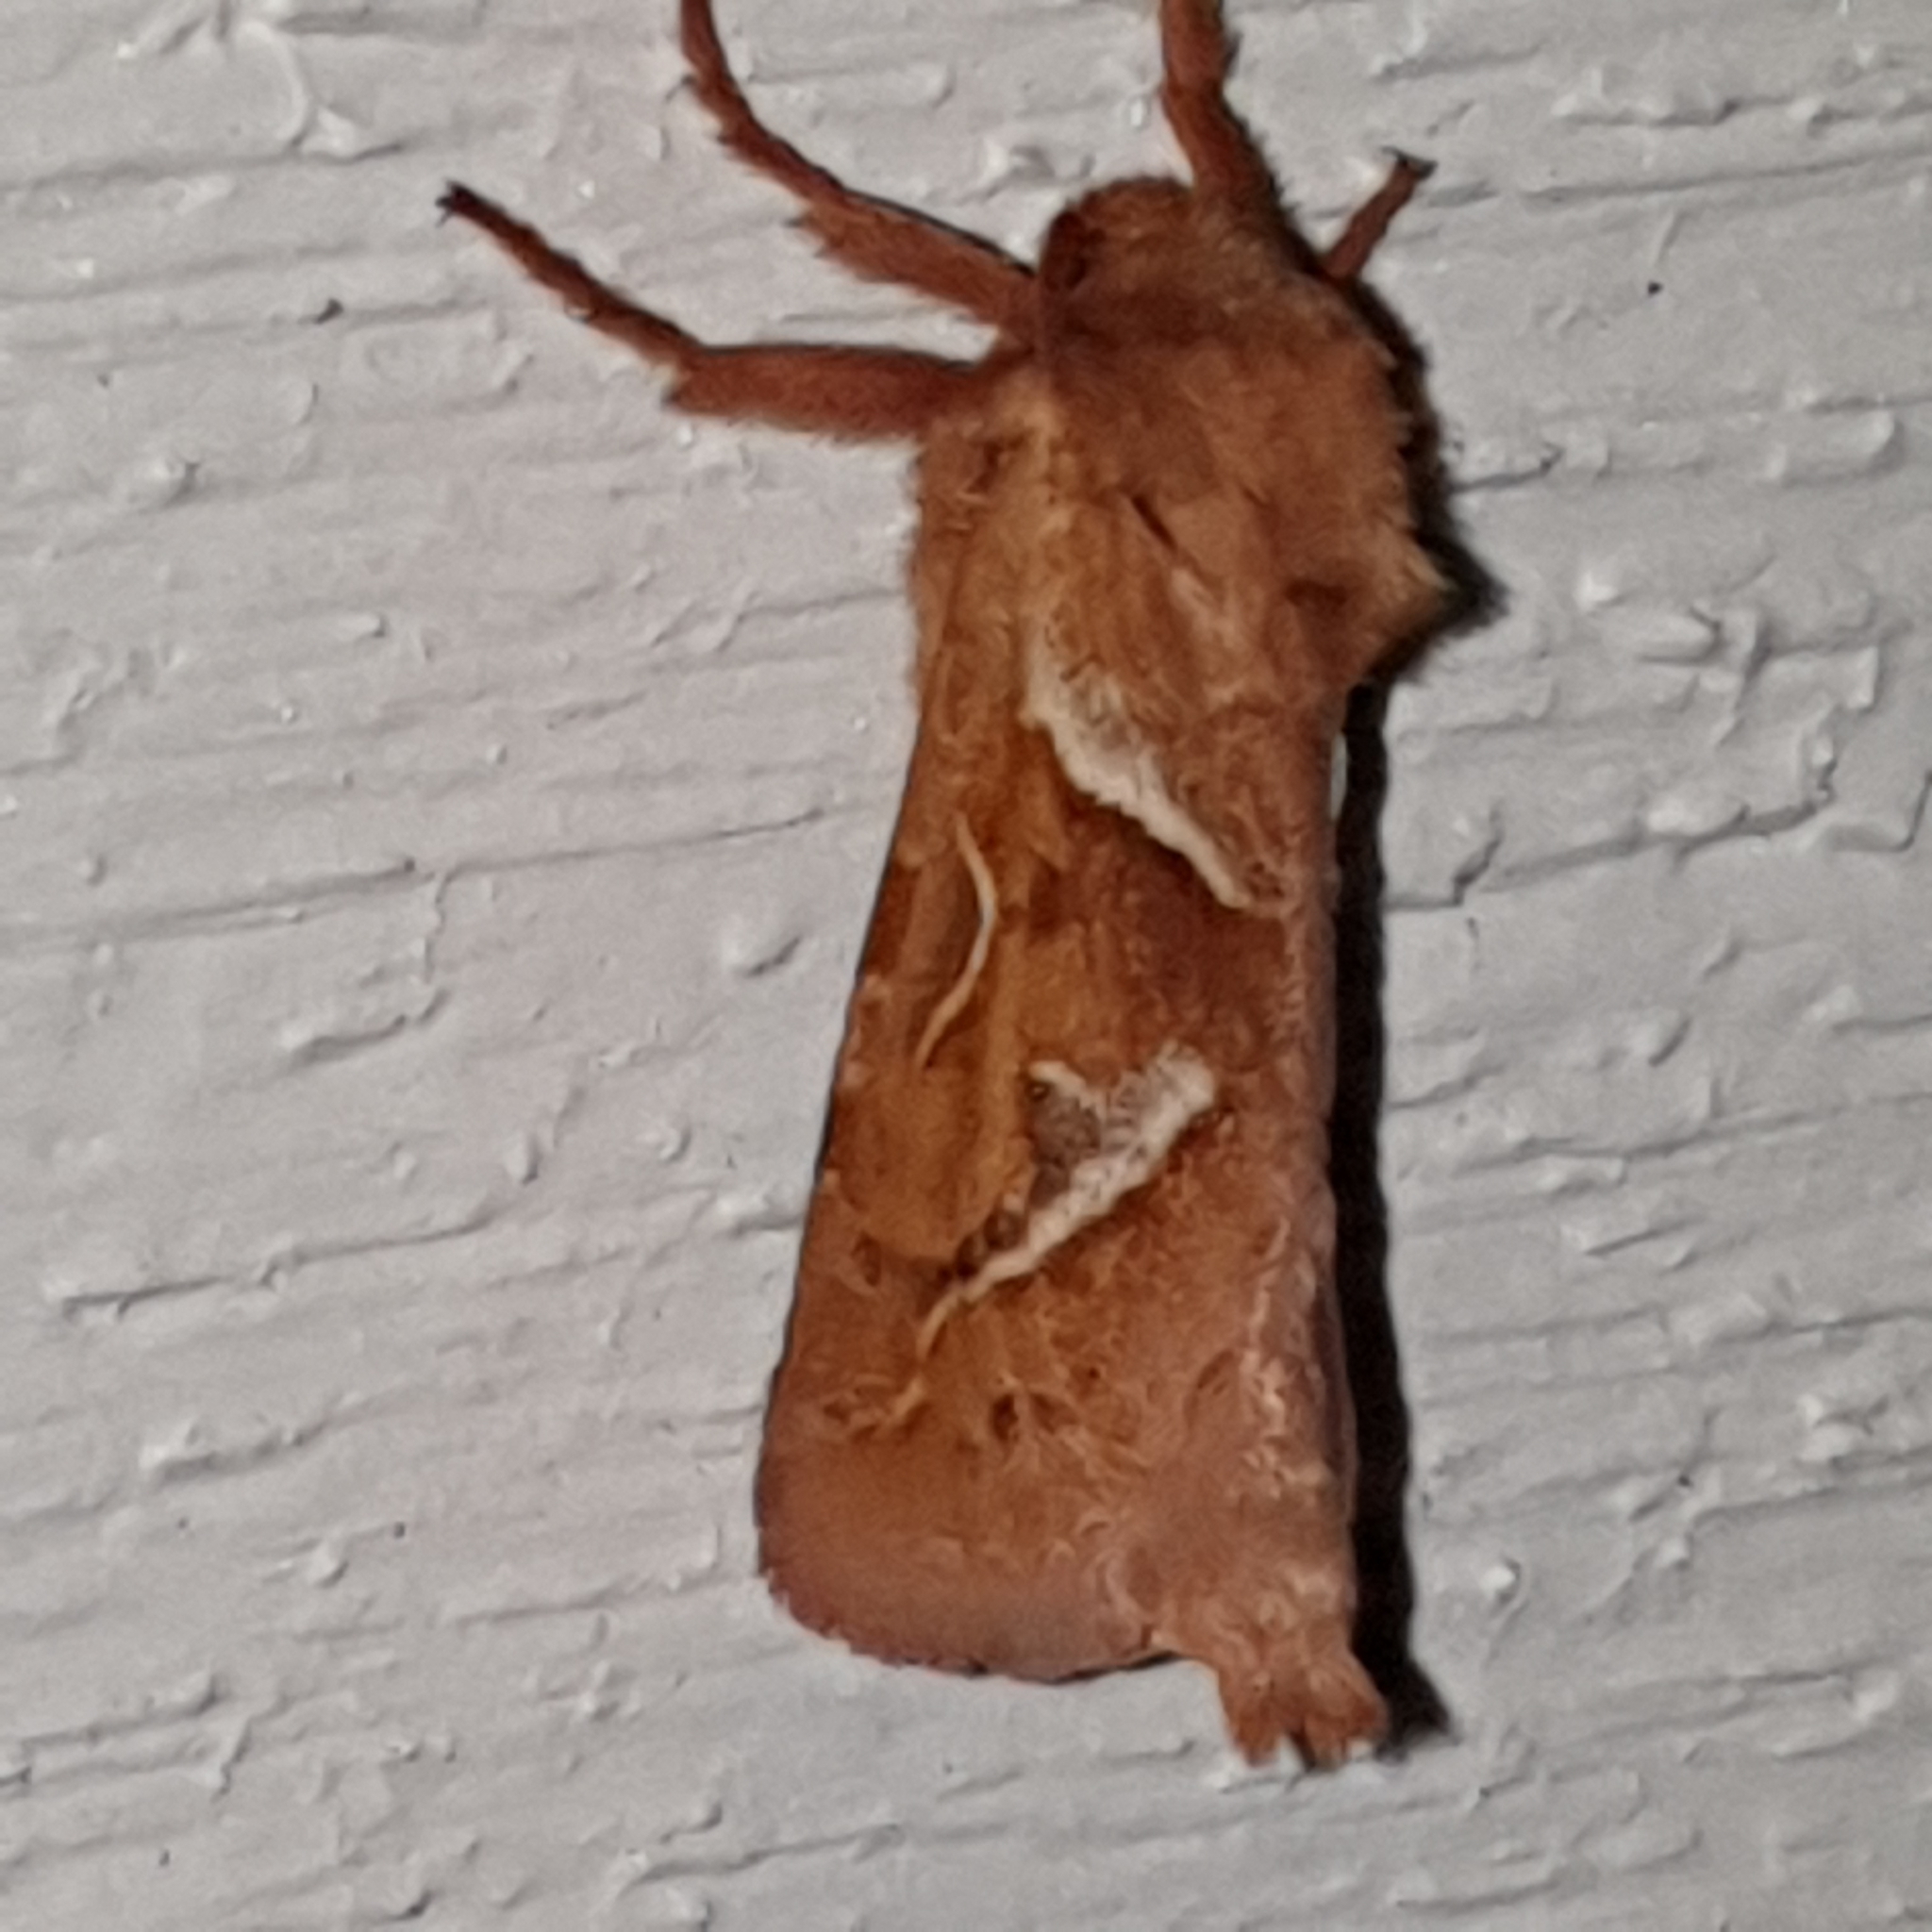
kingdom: Animalia
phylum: Arthropoda
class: Insecta
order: Lepidoptera
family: Hepialidae
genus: Triodia
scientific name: Triodia sylvina
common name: Orange swift
